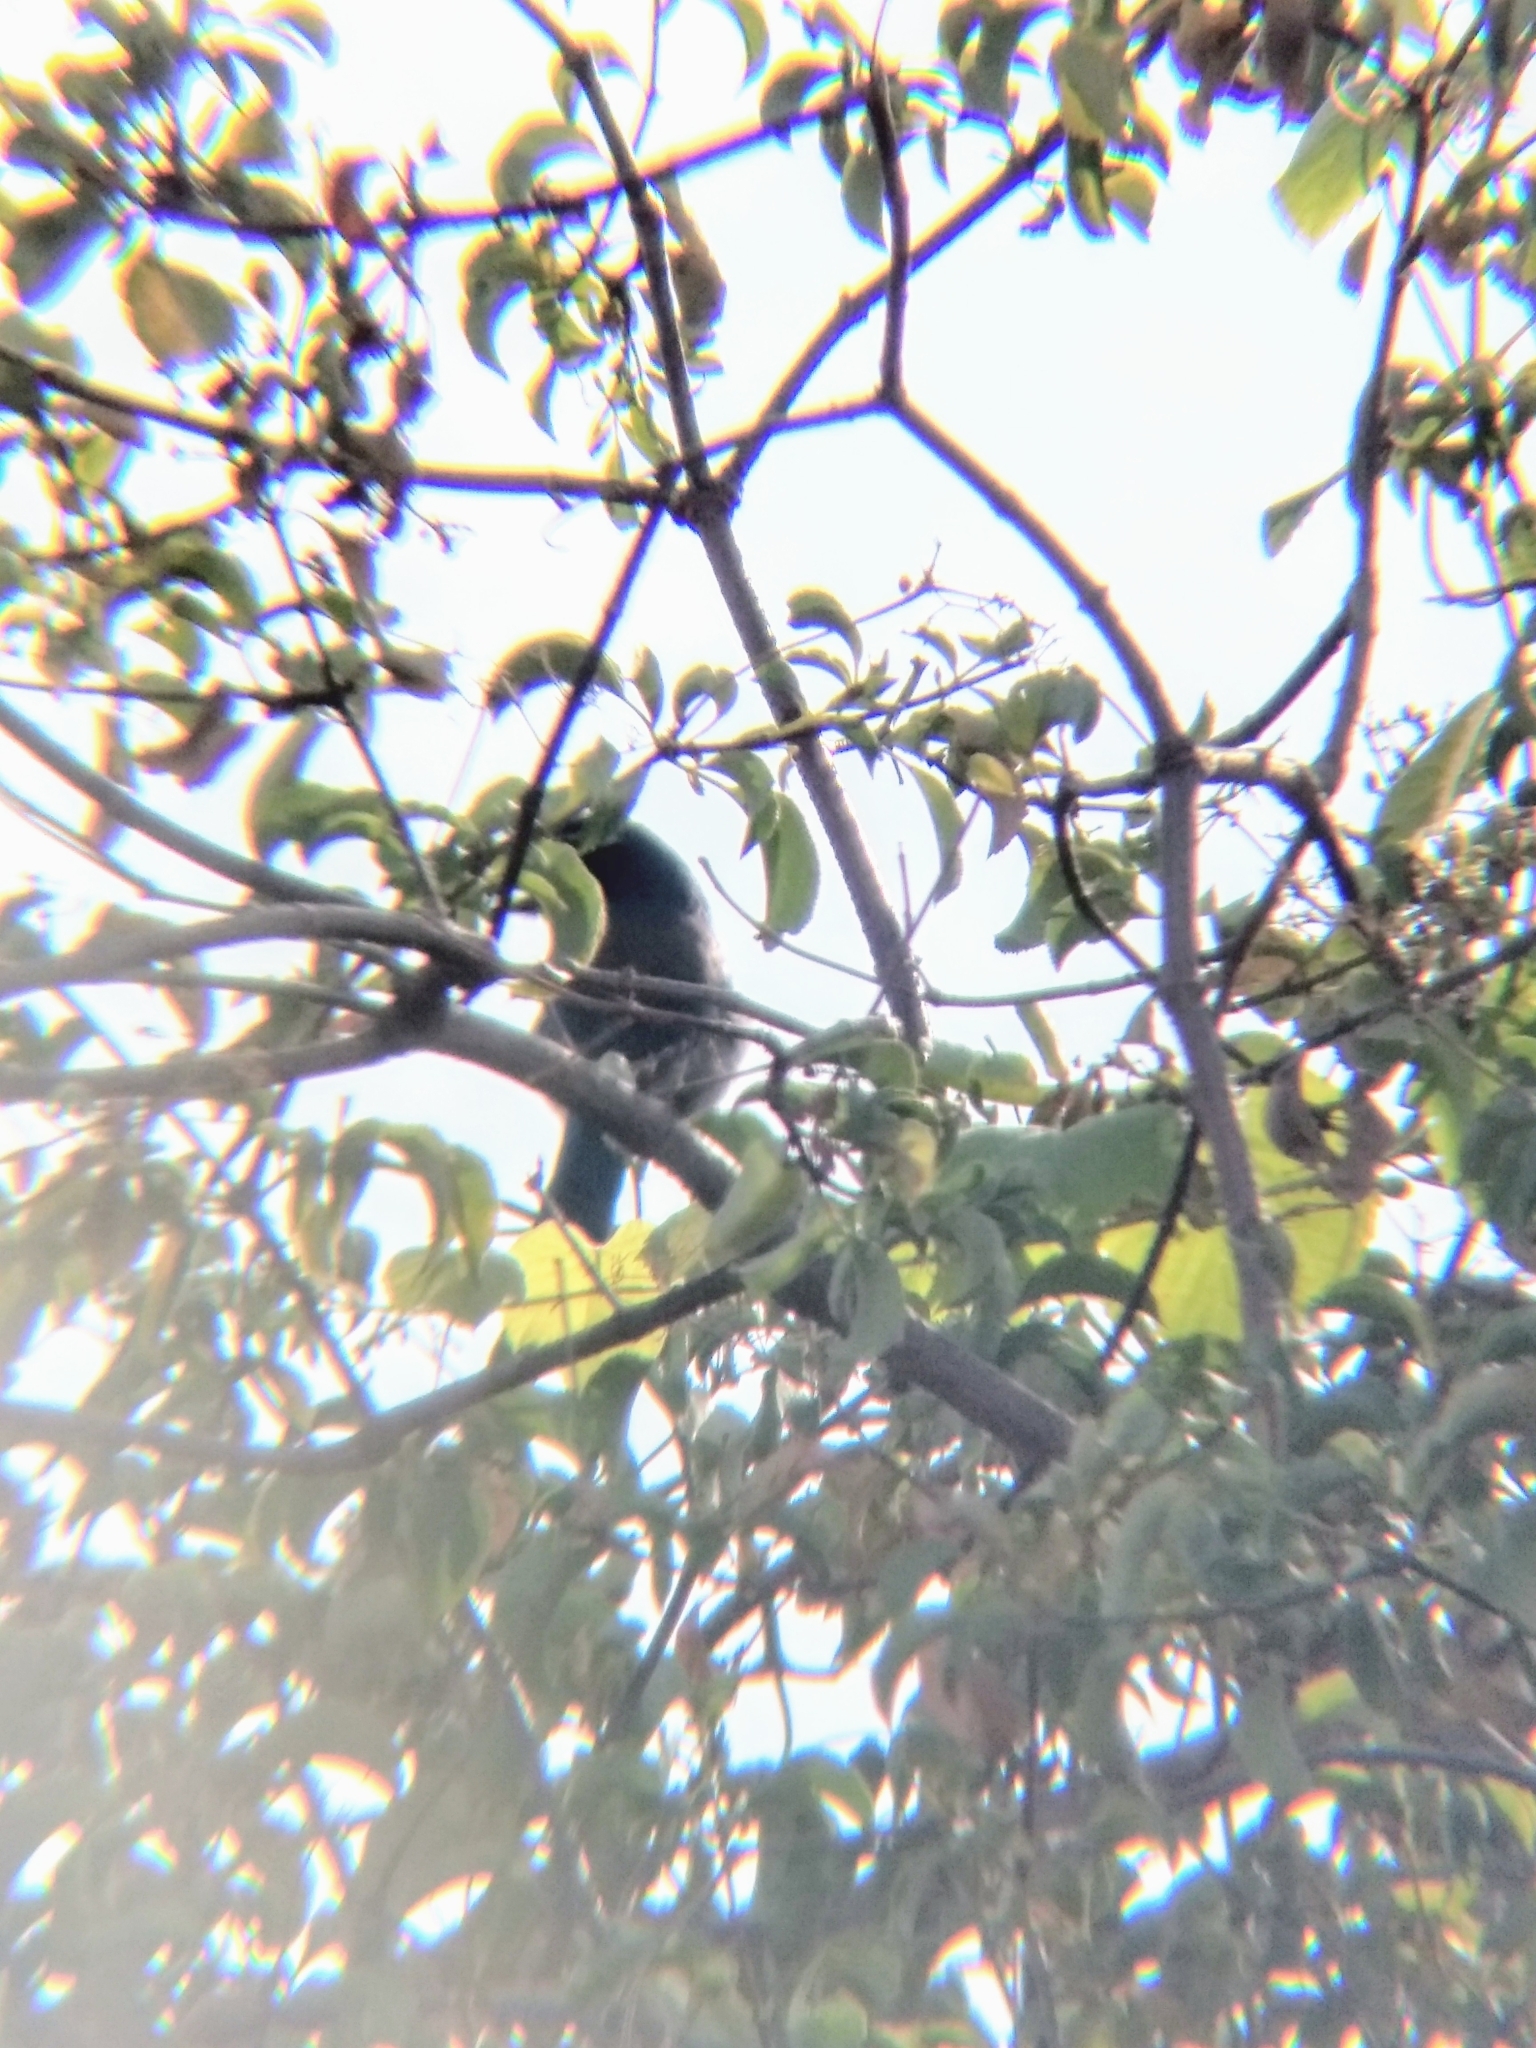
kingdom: Animalia
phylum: Chordata
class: Aves
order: Passeriformes
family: Corvidae
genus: Aphelocoma
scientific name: Aphelocoma californica
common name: California scrub-jay
